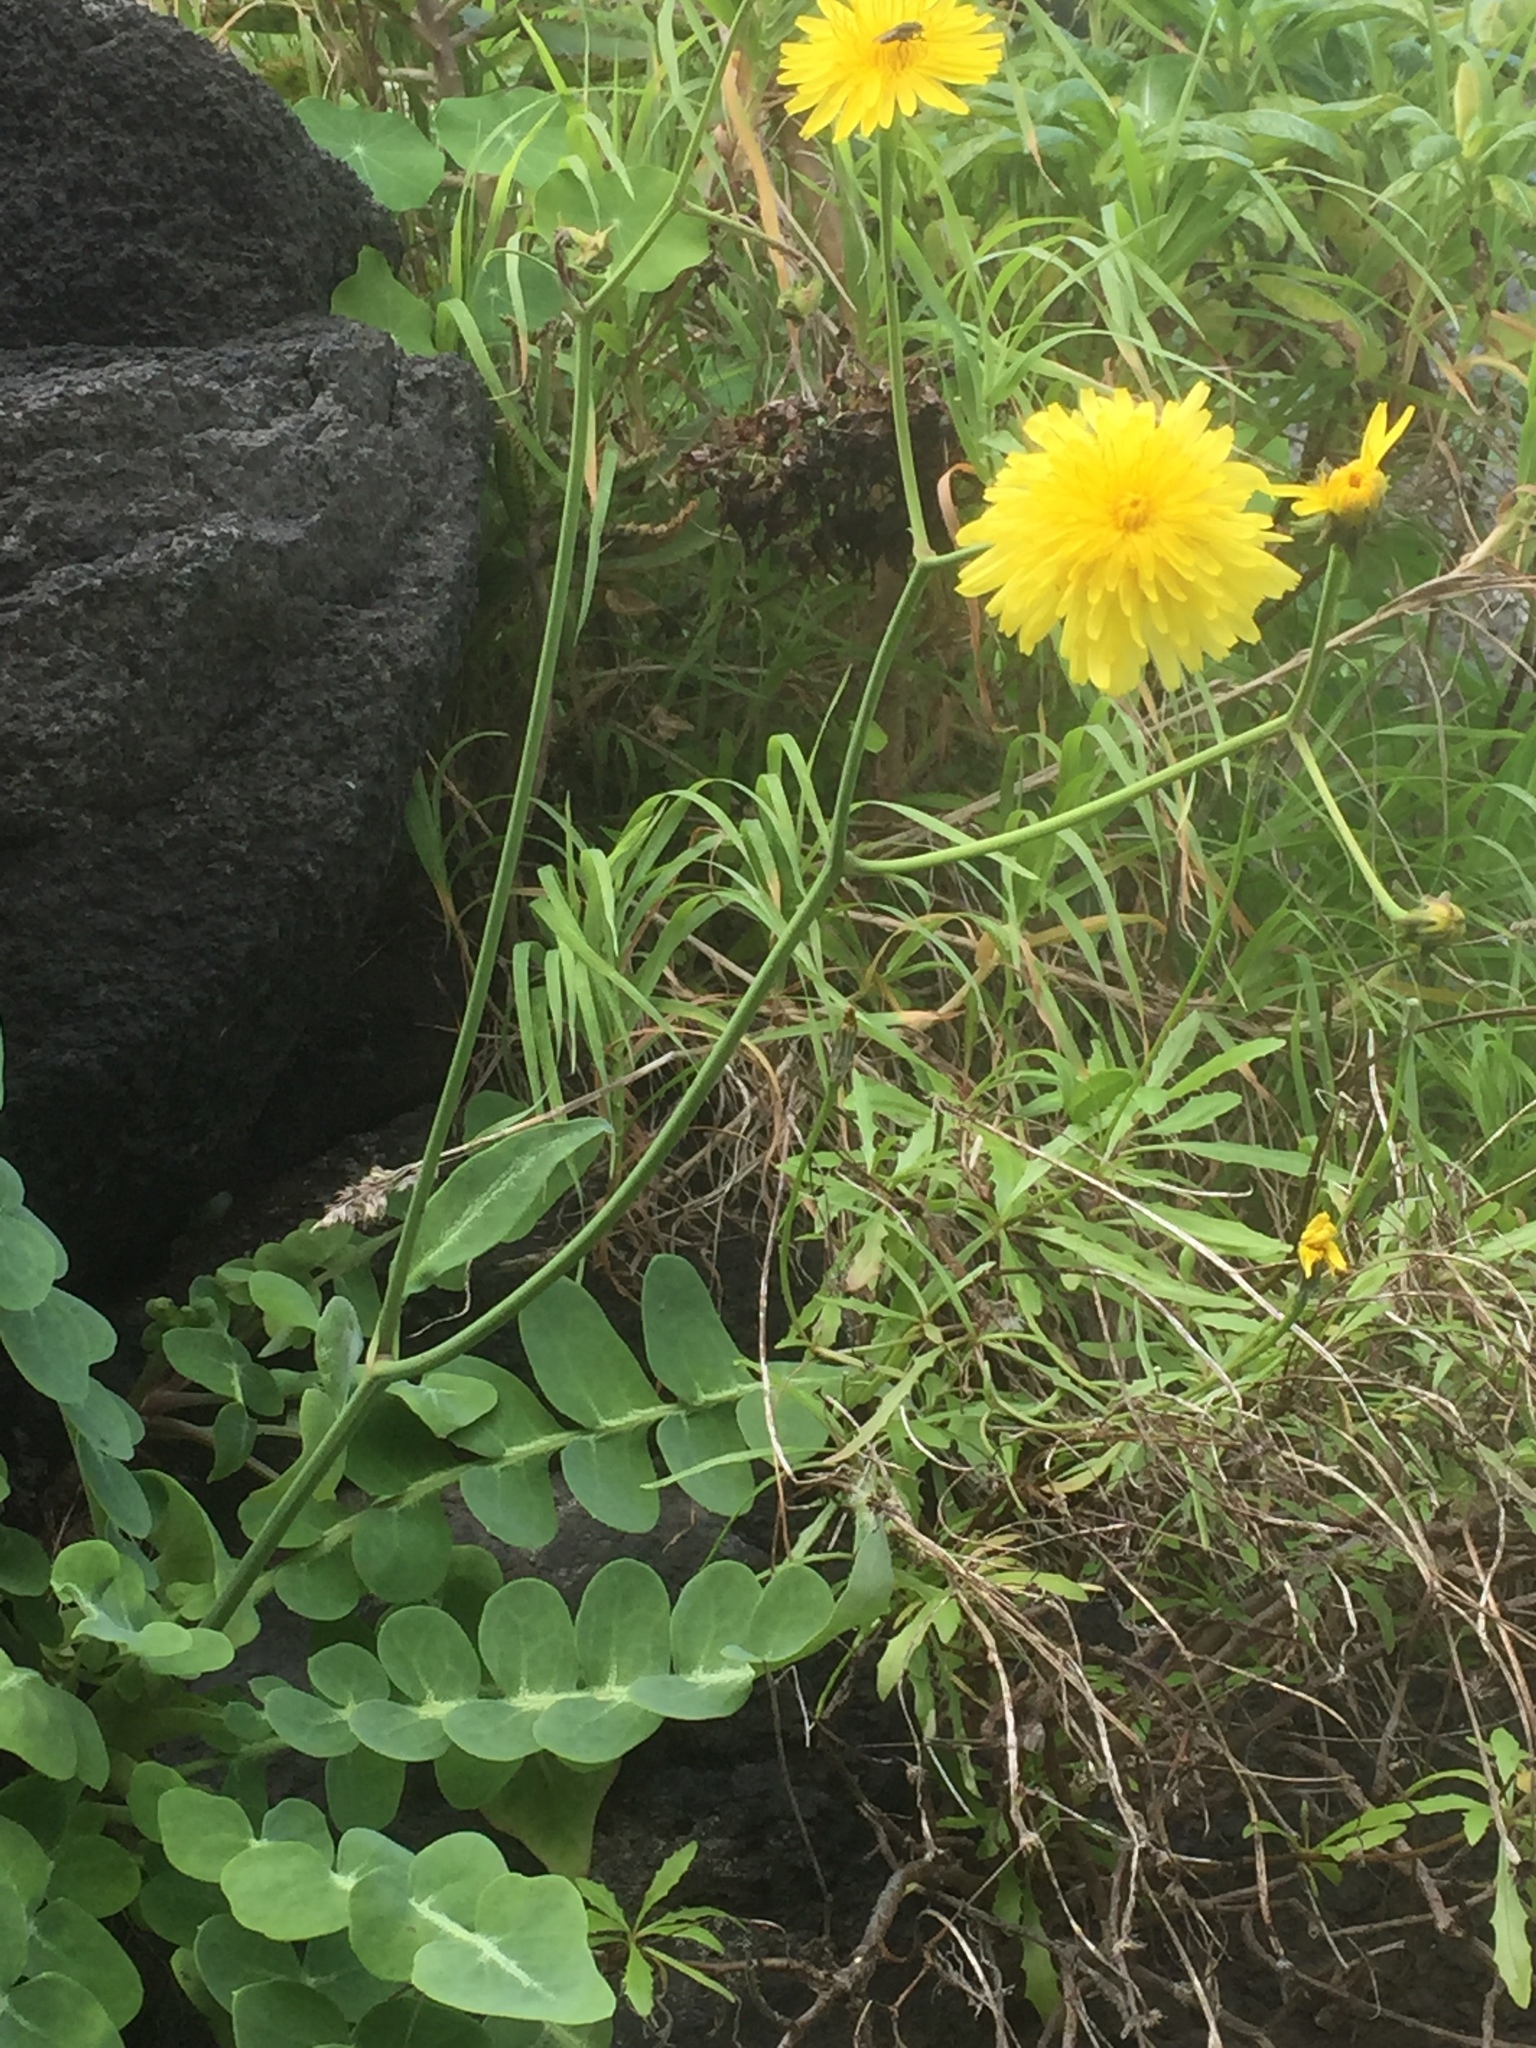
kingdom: Plantae
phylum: Tracheophyta
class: Magnoliopsida
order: Asterales
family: Asteraceae
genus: Sonchus
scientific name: Sonchus latifolius
